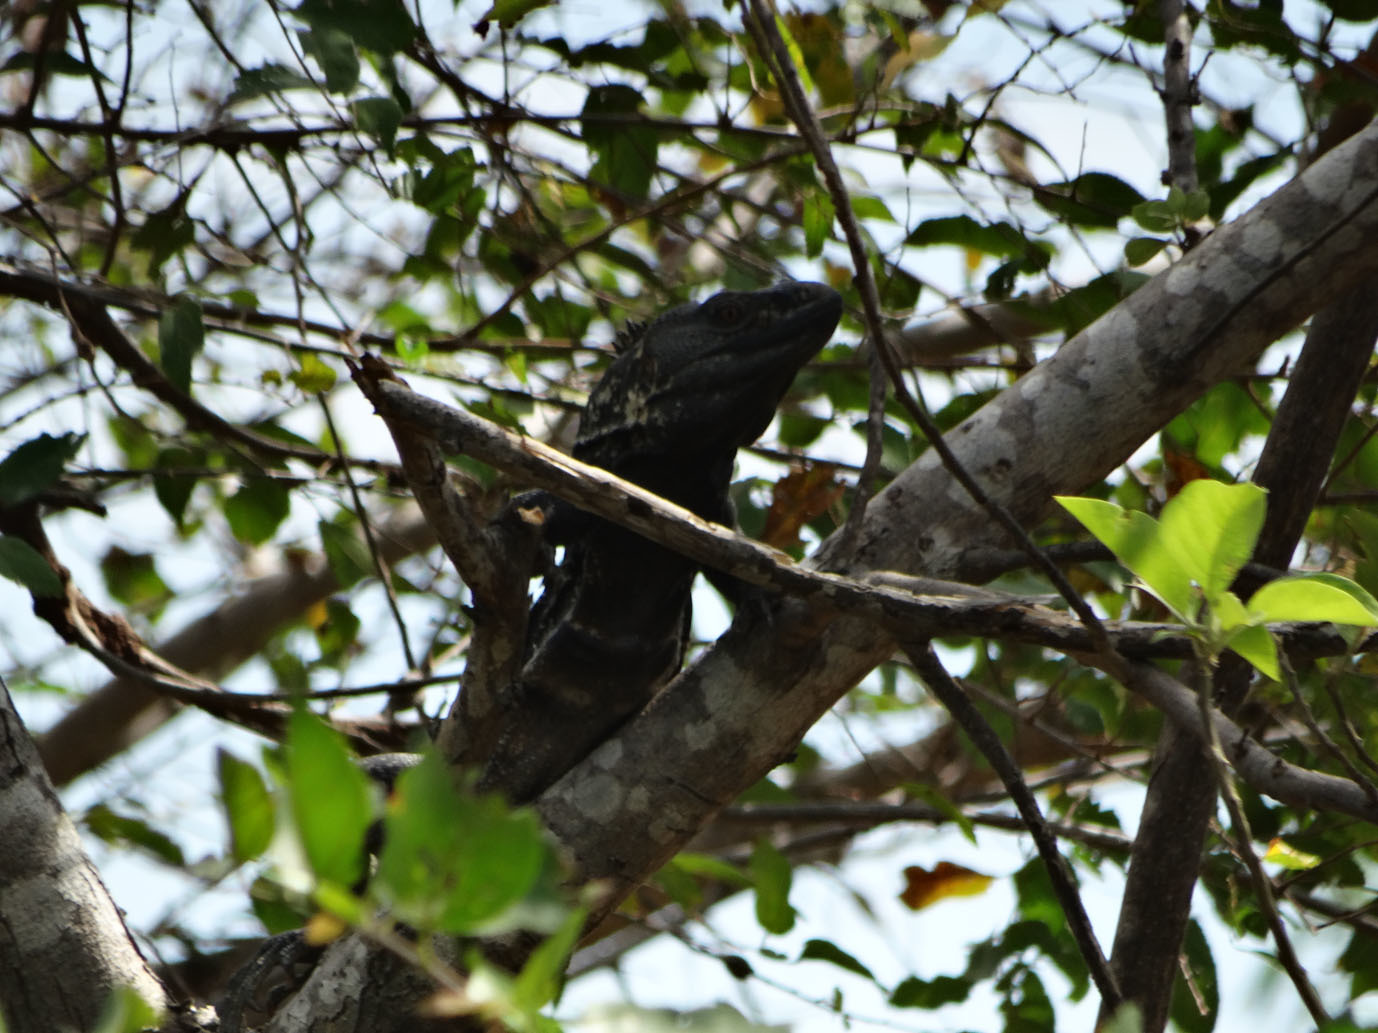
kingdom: Animalia
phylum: Chordata
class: Squamata
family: Iguanidae
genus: Ctenosaura
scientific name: Ctenosaura pectinata
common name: Guerreran spiny-tailed iguana
